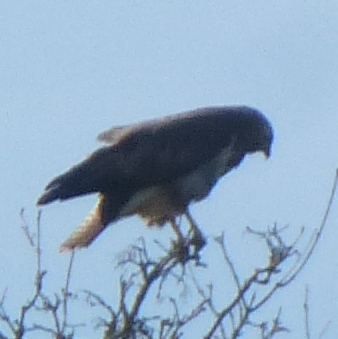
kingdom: Animalia
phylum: Chordata
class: Aves
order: Accipitriformes
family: Accipitridae
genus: Buteo
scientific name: Buteo buteo
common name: Common buzzard
